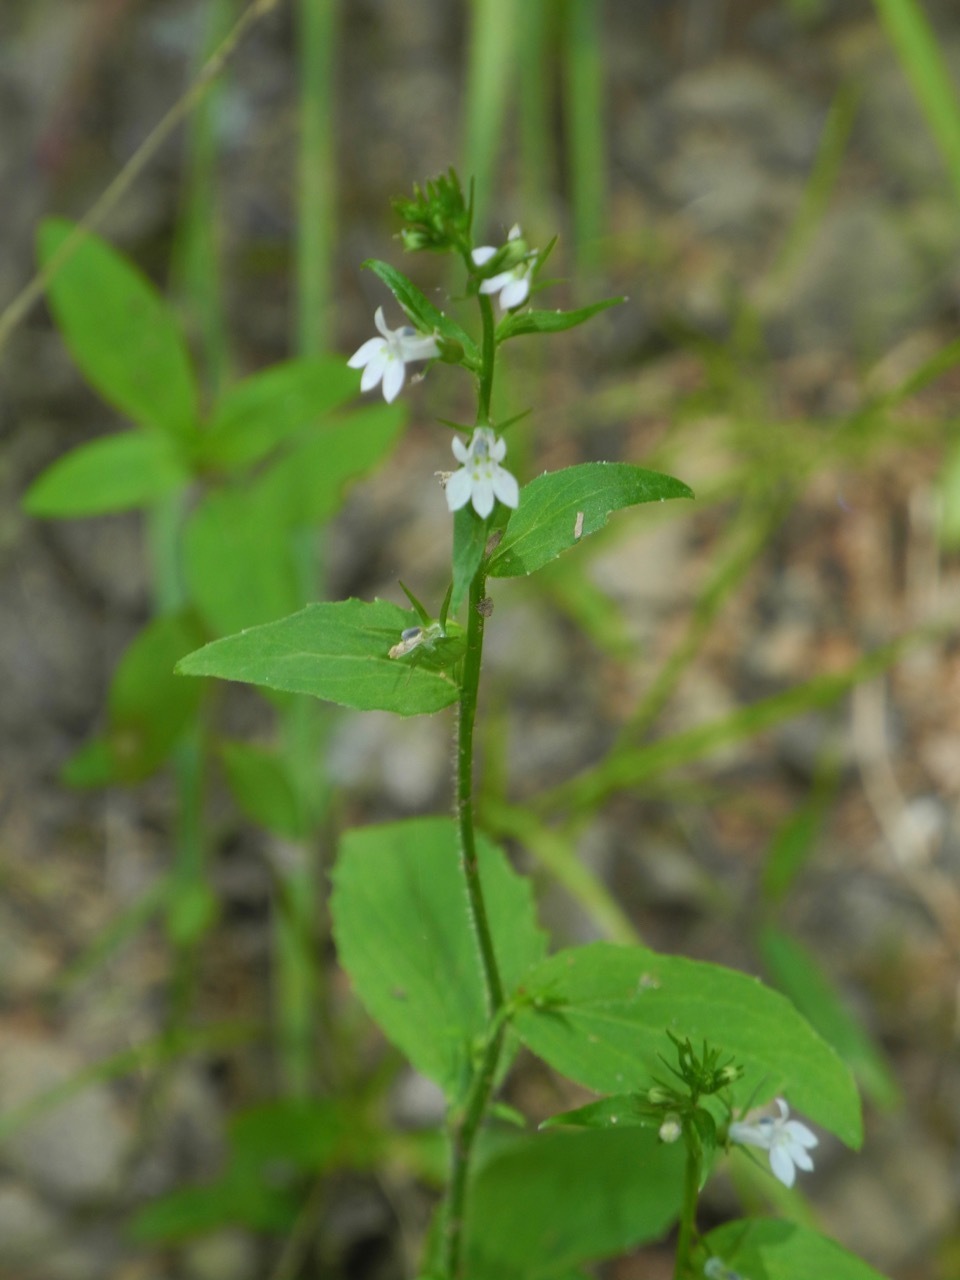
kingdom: Plantae
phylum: Tracheophyta
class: Magnoliopsida
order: Asterales
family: Campanulaceae
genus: Lobelia
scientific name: Lobelia inflata
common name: Indian tobacco
